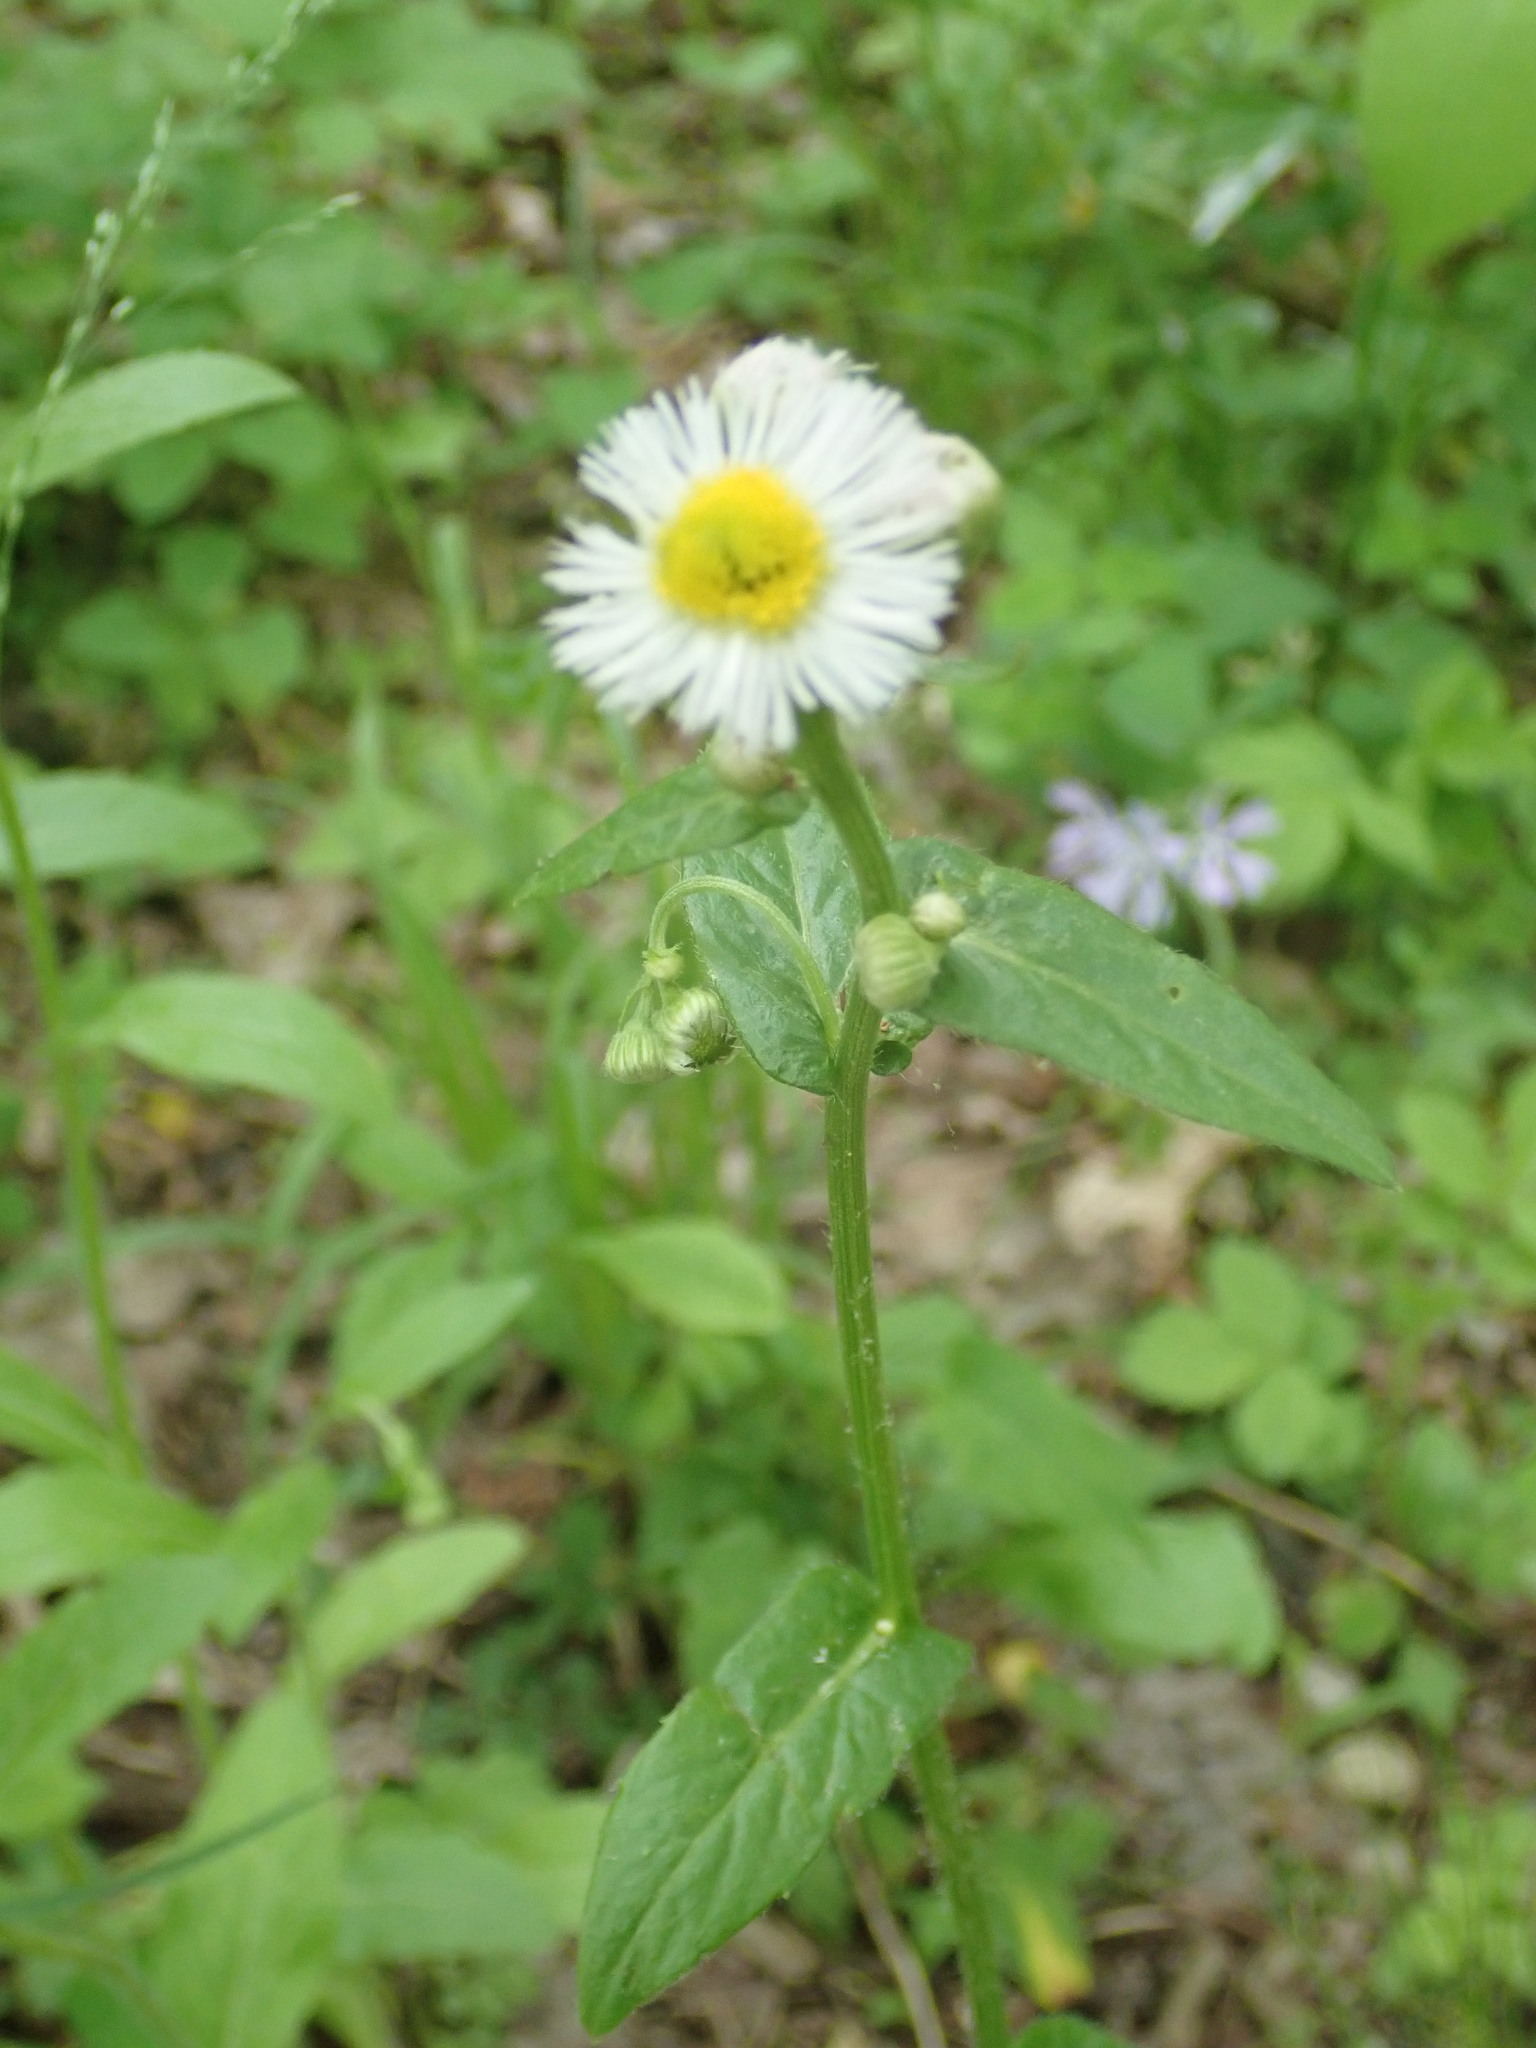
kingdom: Plantae
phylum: Tracheophyta
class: Magnoliopsida
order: Asterales
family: Asteraceae
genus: Erigeron
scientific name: Erigeron philadelphicus
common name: Robin's-plantain
